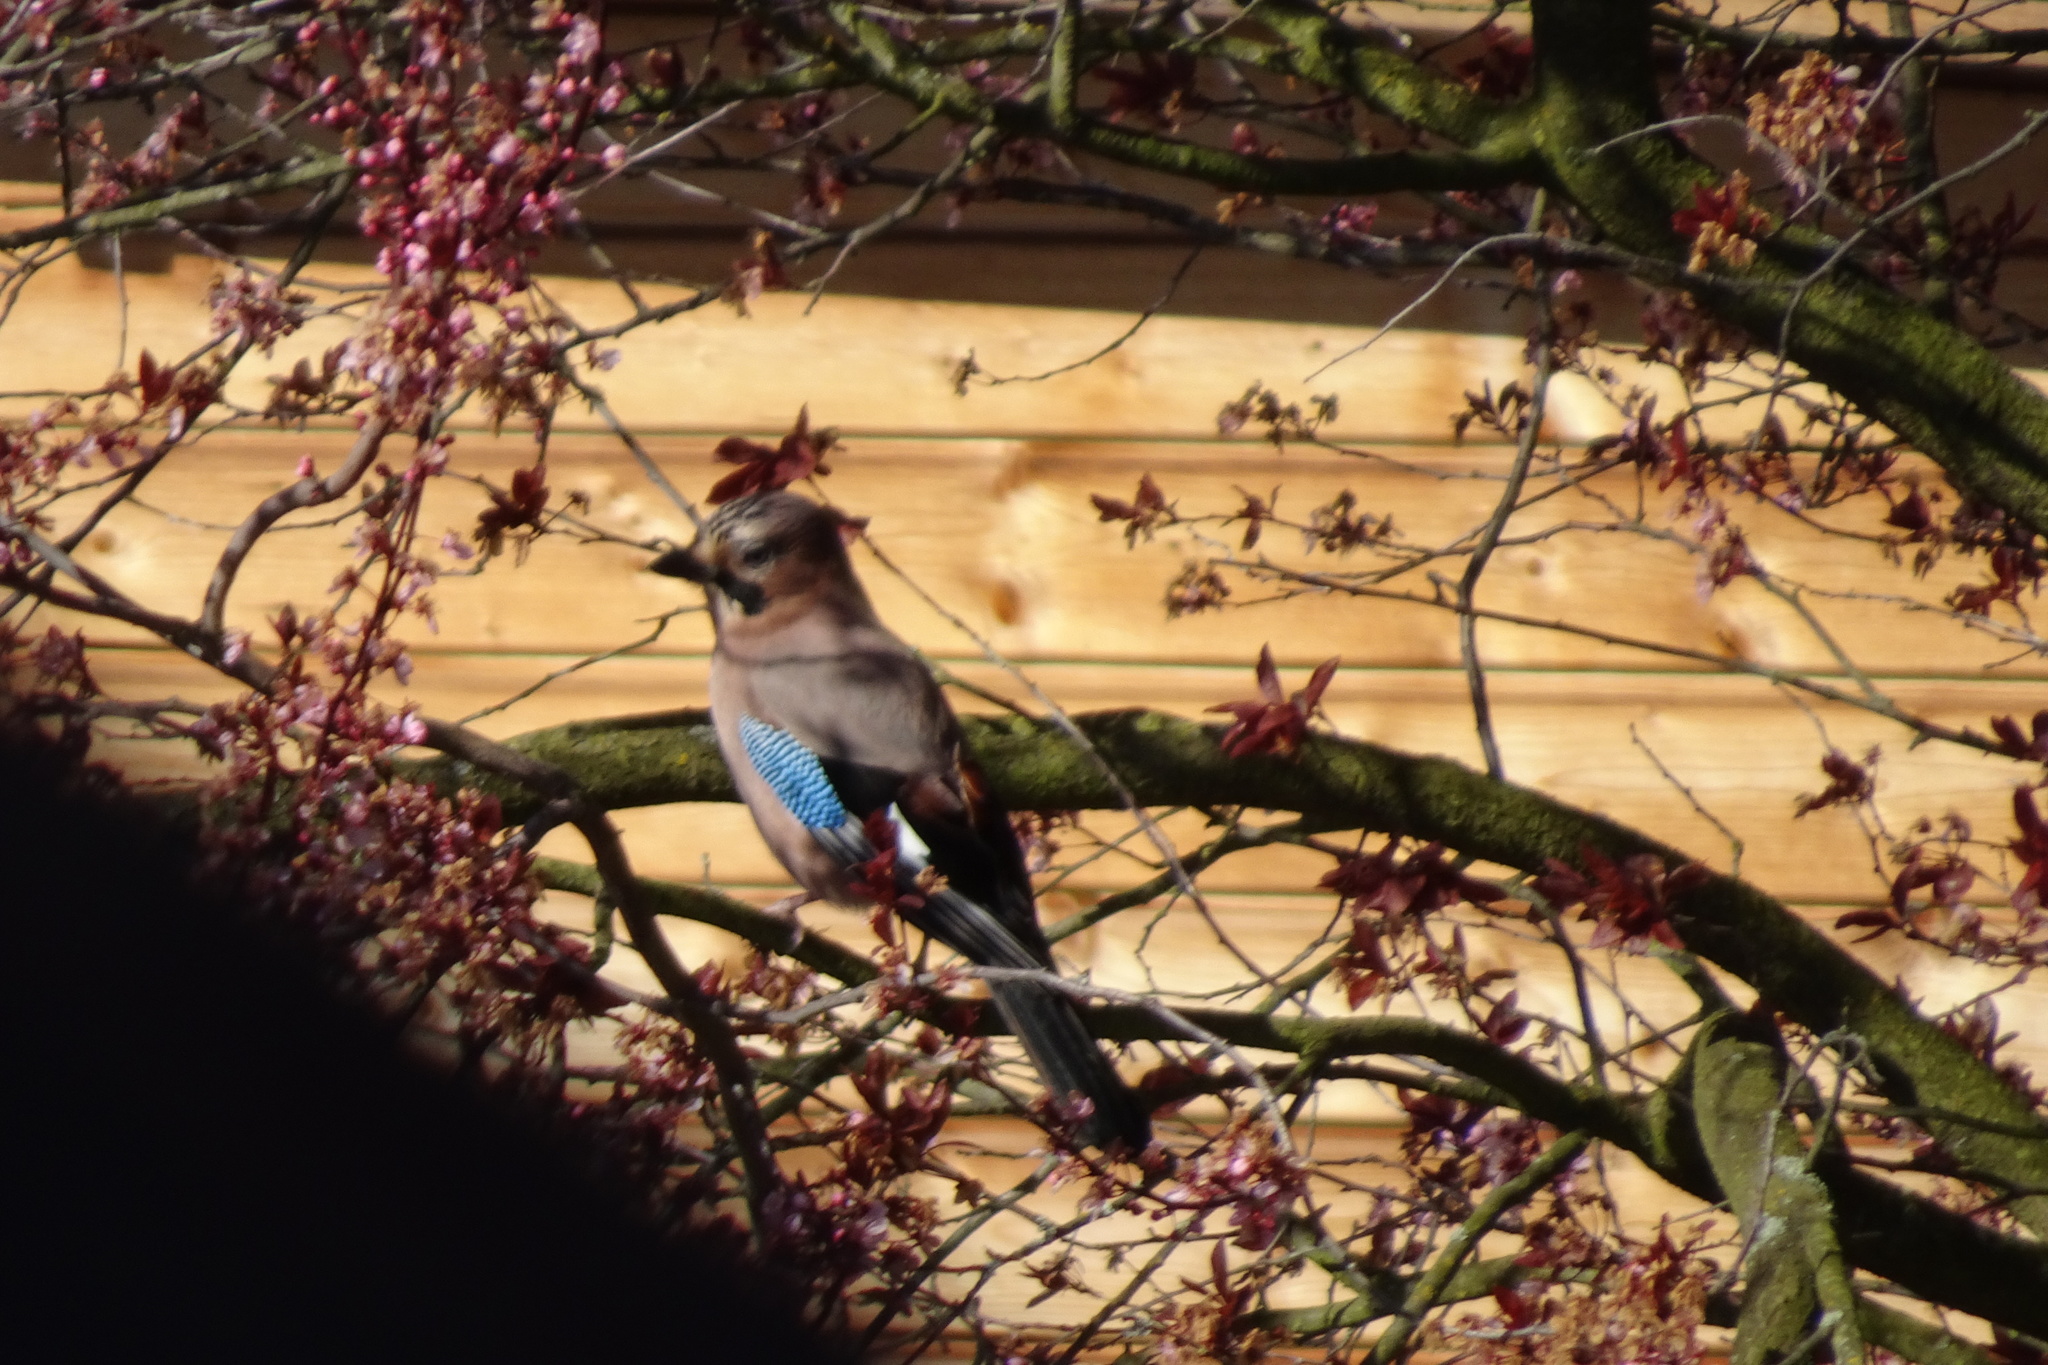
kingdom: Animalia
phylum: Chordata
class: Aves
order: Passeriformes
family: Corvidae
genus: Garrulus
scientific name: Garrulus glandarius
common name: Eurasian jay
